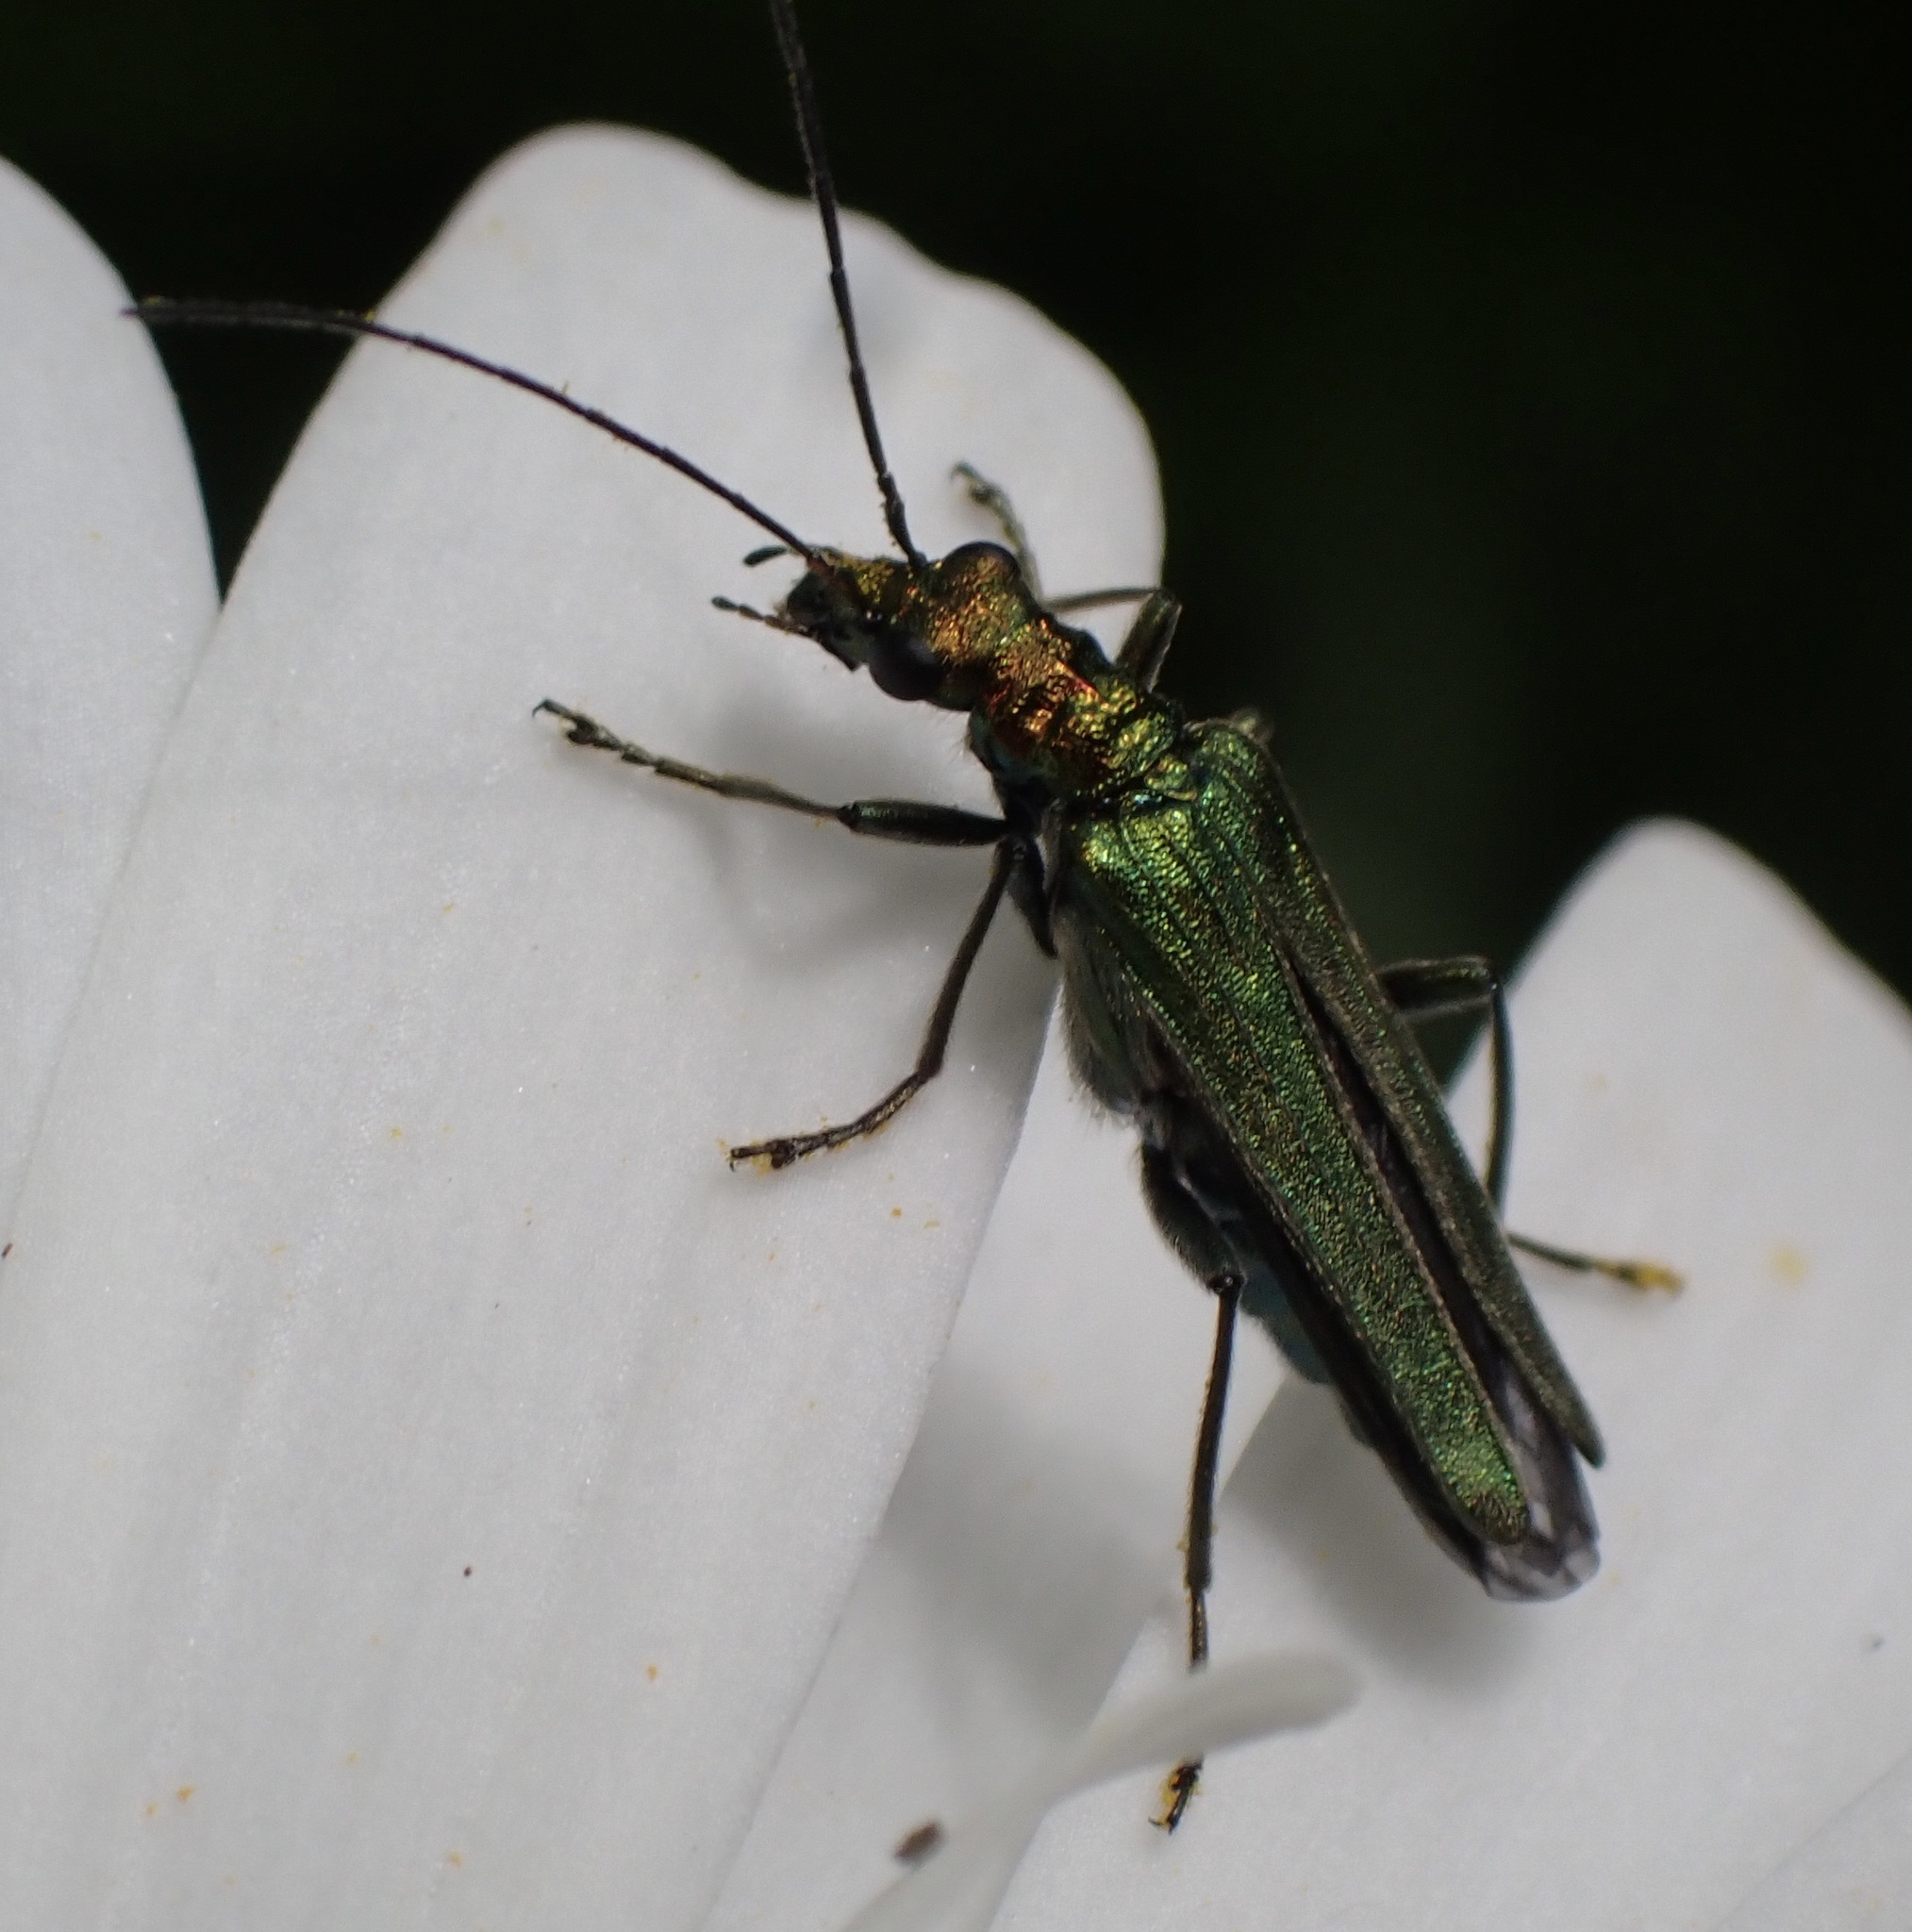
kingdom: Animalia
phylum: Arthropoda
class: Insecta
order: Coleoptera
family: Oedemeridae
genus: Oedemera
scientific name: Oedemera nobilis
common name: Swollen-thighed beetle
